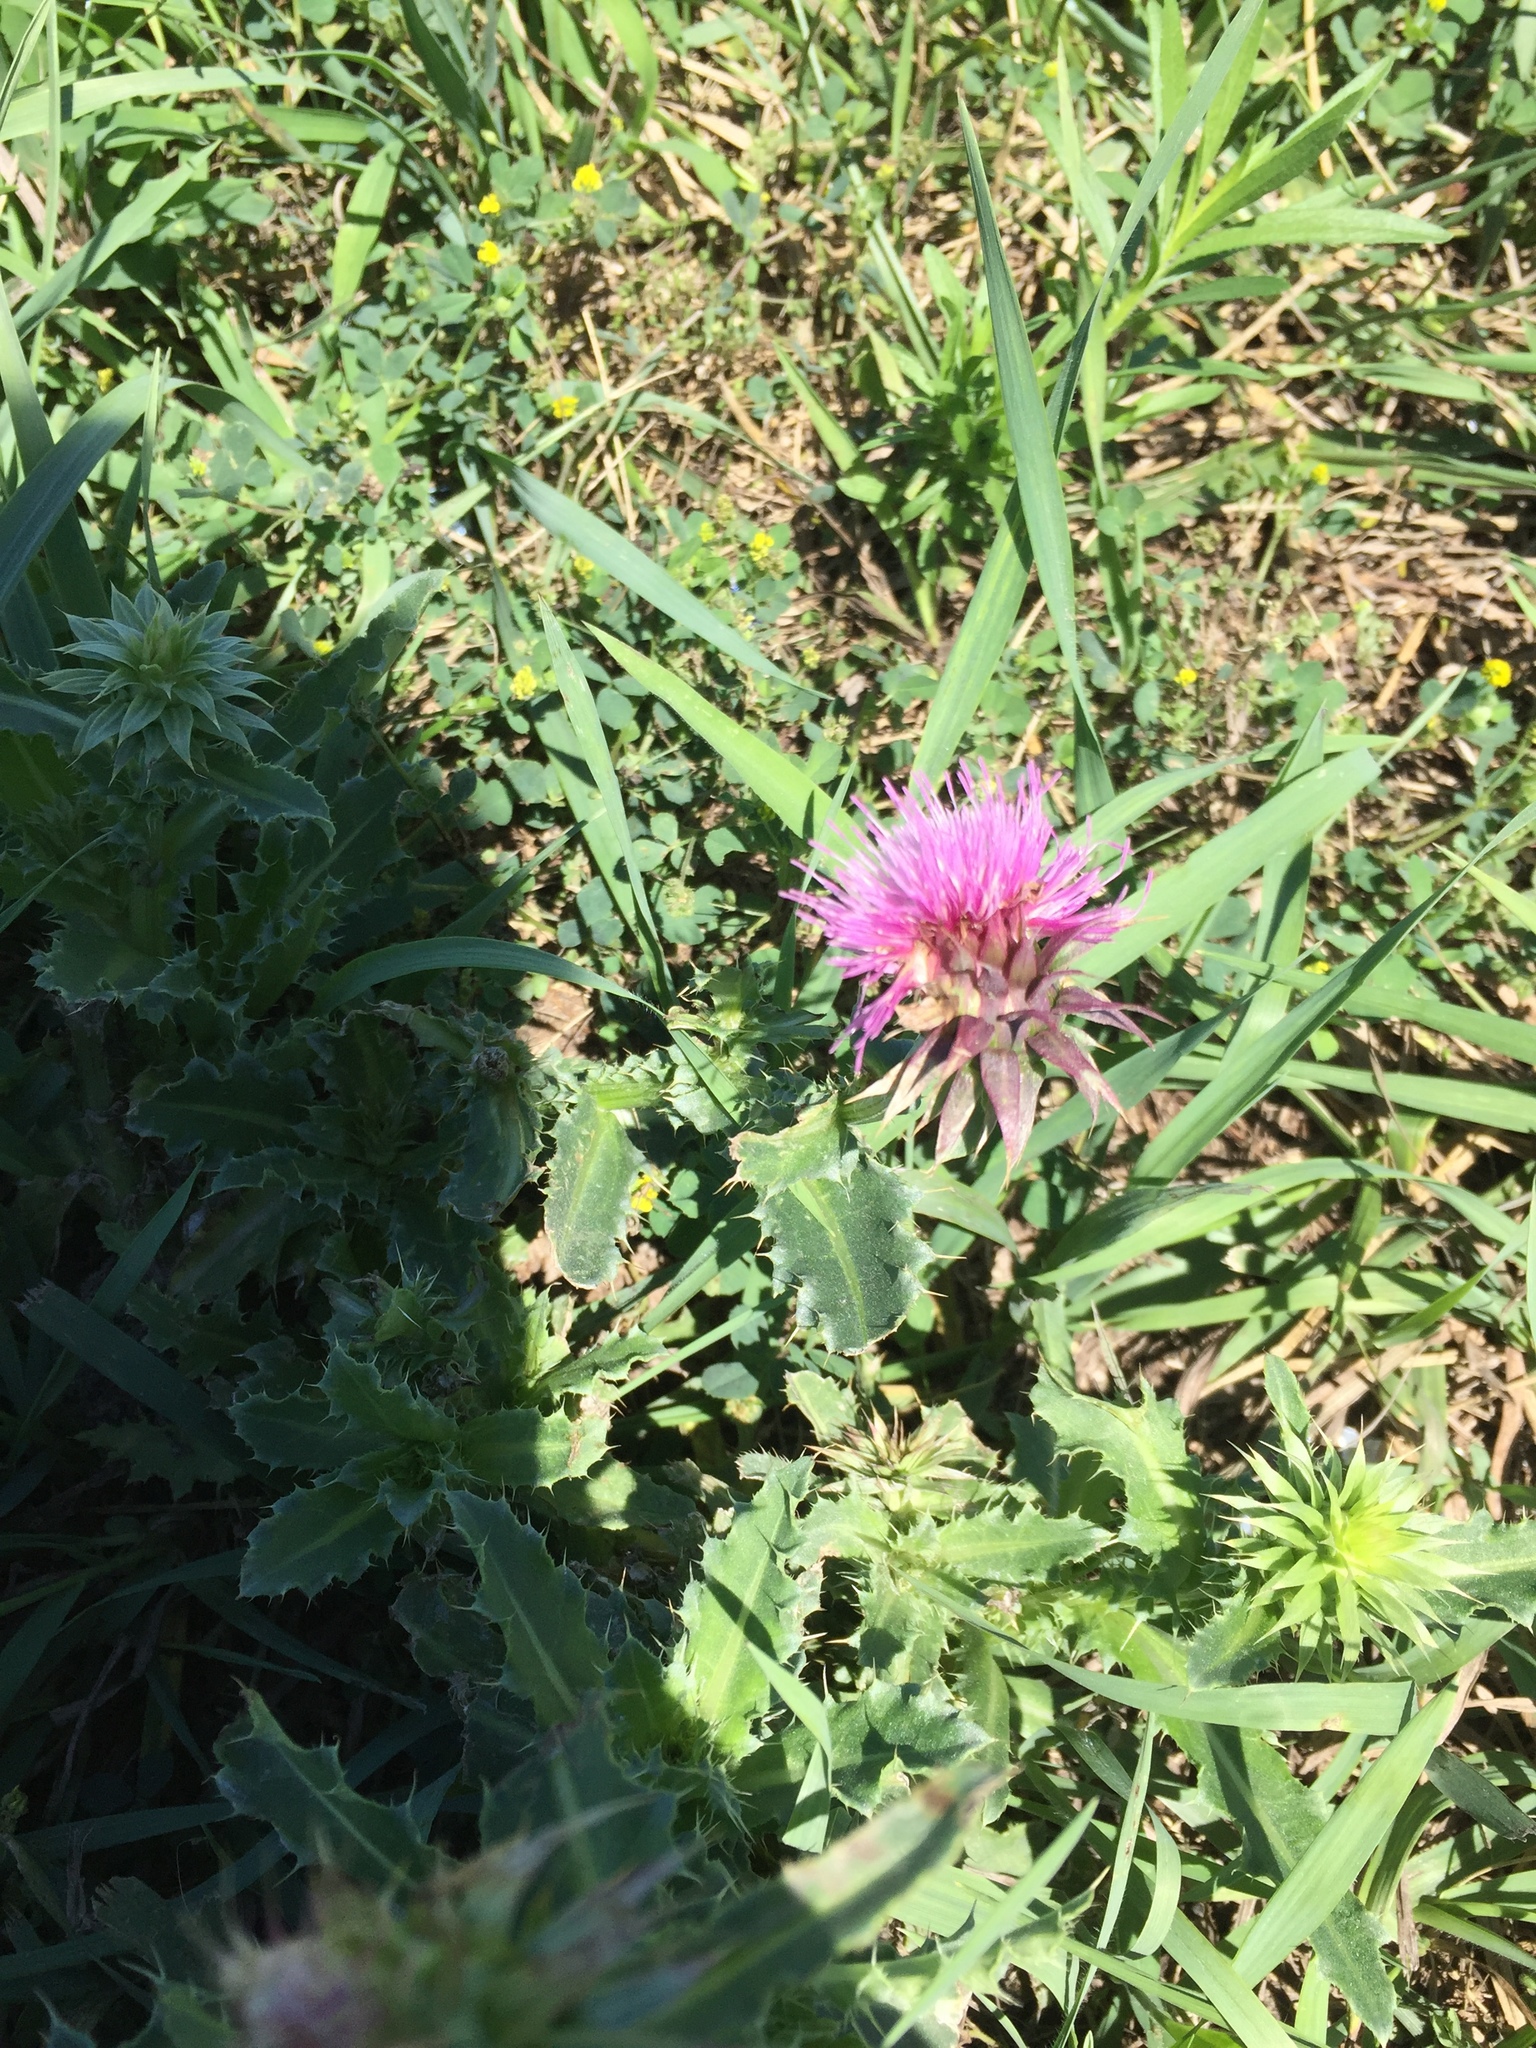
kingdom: Plantae
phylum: Tracheophyta
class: Magnoliopsida
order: Asterales
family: Asteraceae
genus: Carduus
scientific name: Carduus nutans
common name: Musk thistle
